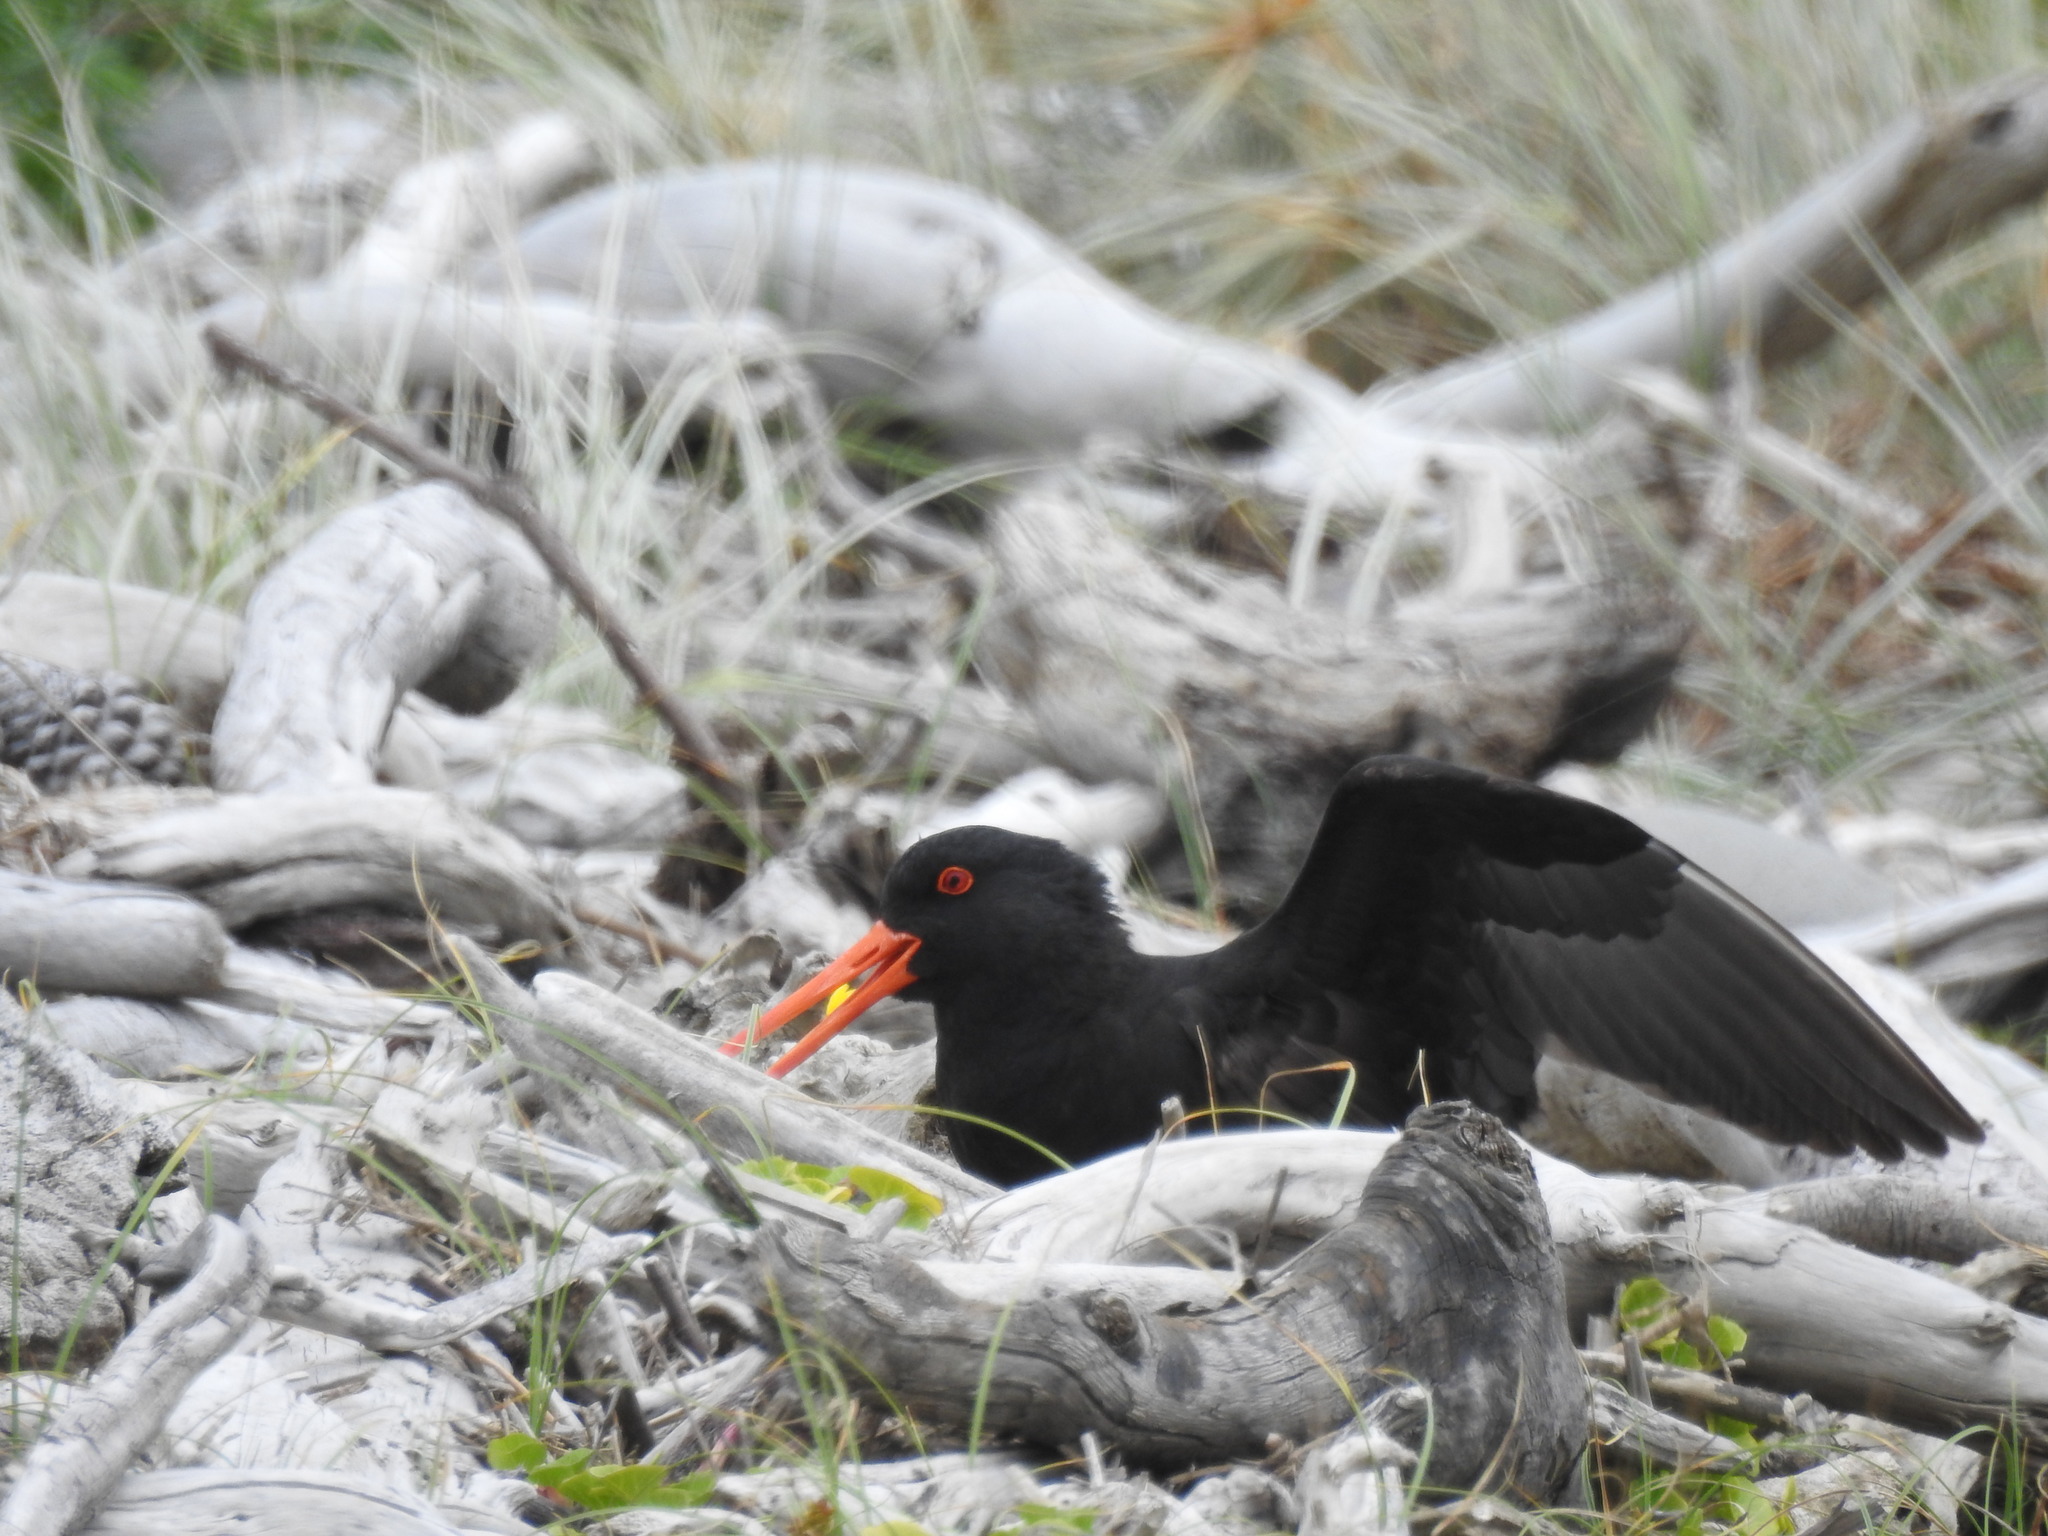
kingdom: Animalia
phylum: Chordata
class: Aves
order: Charadriiformes
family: Haematopodidae
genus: Haematopus
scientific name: Haematopus unicolor
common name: Variable oystercatcher
